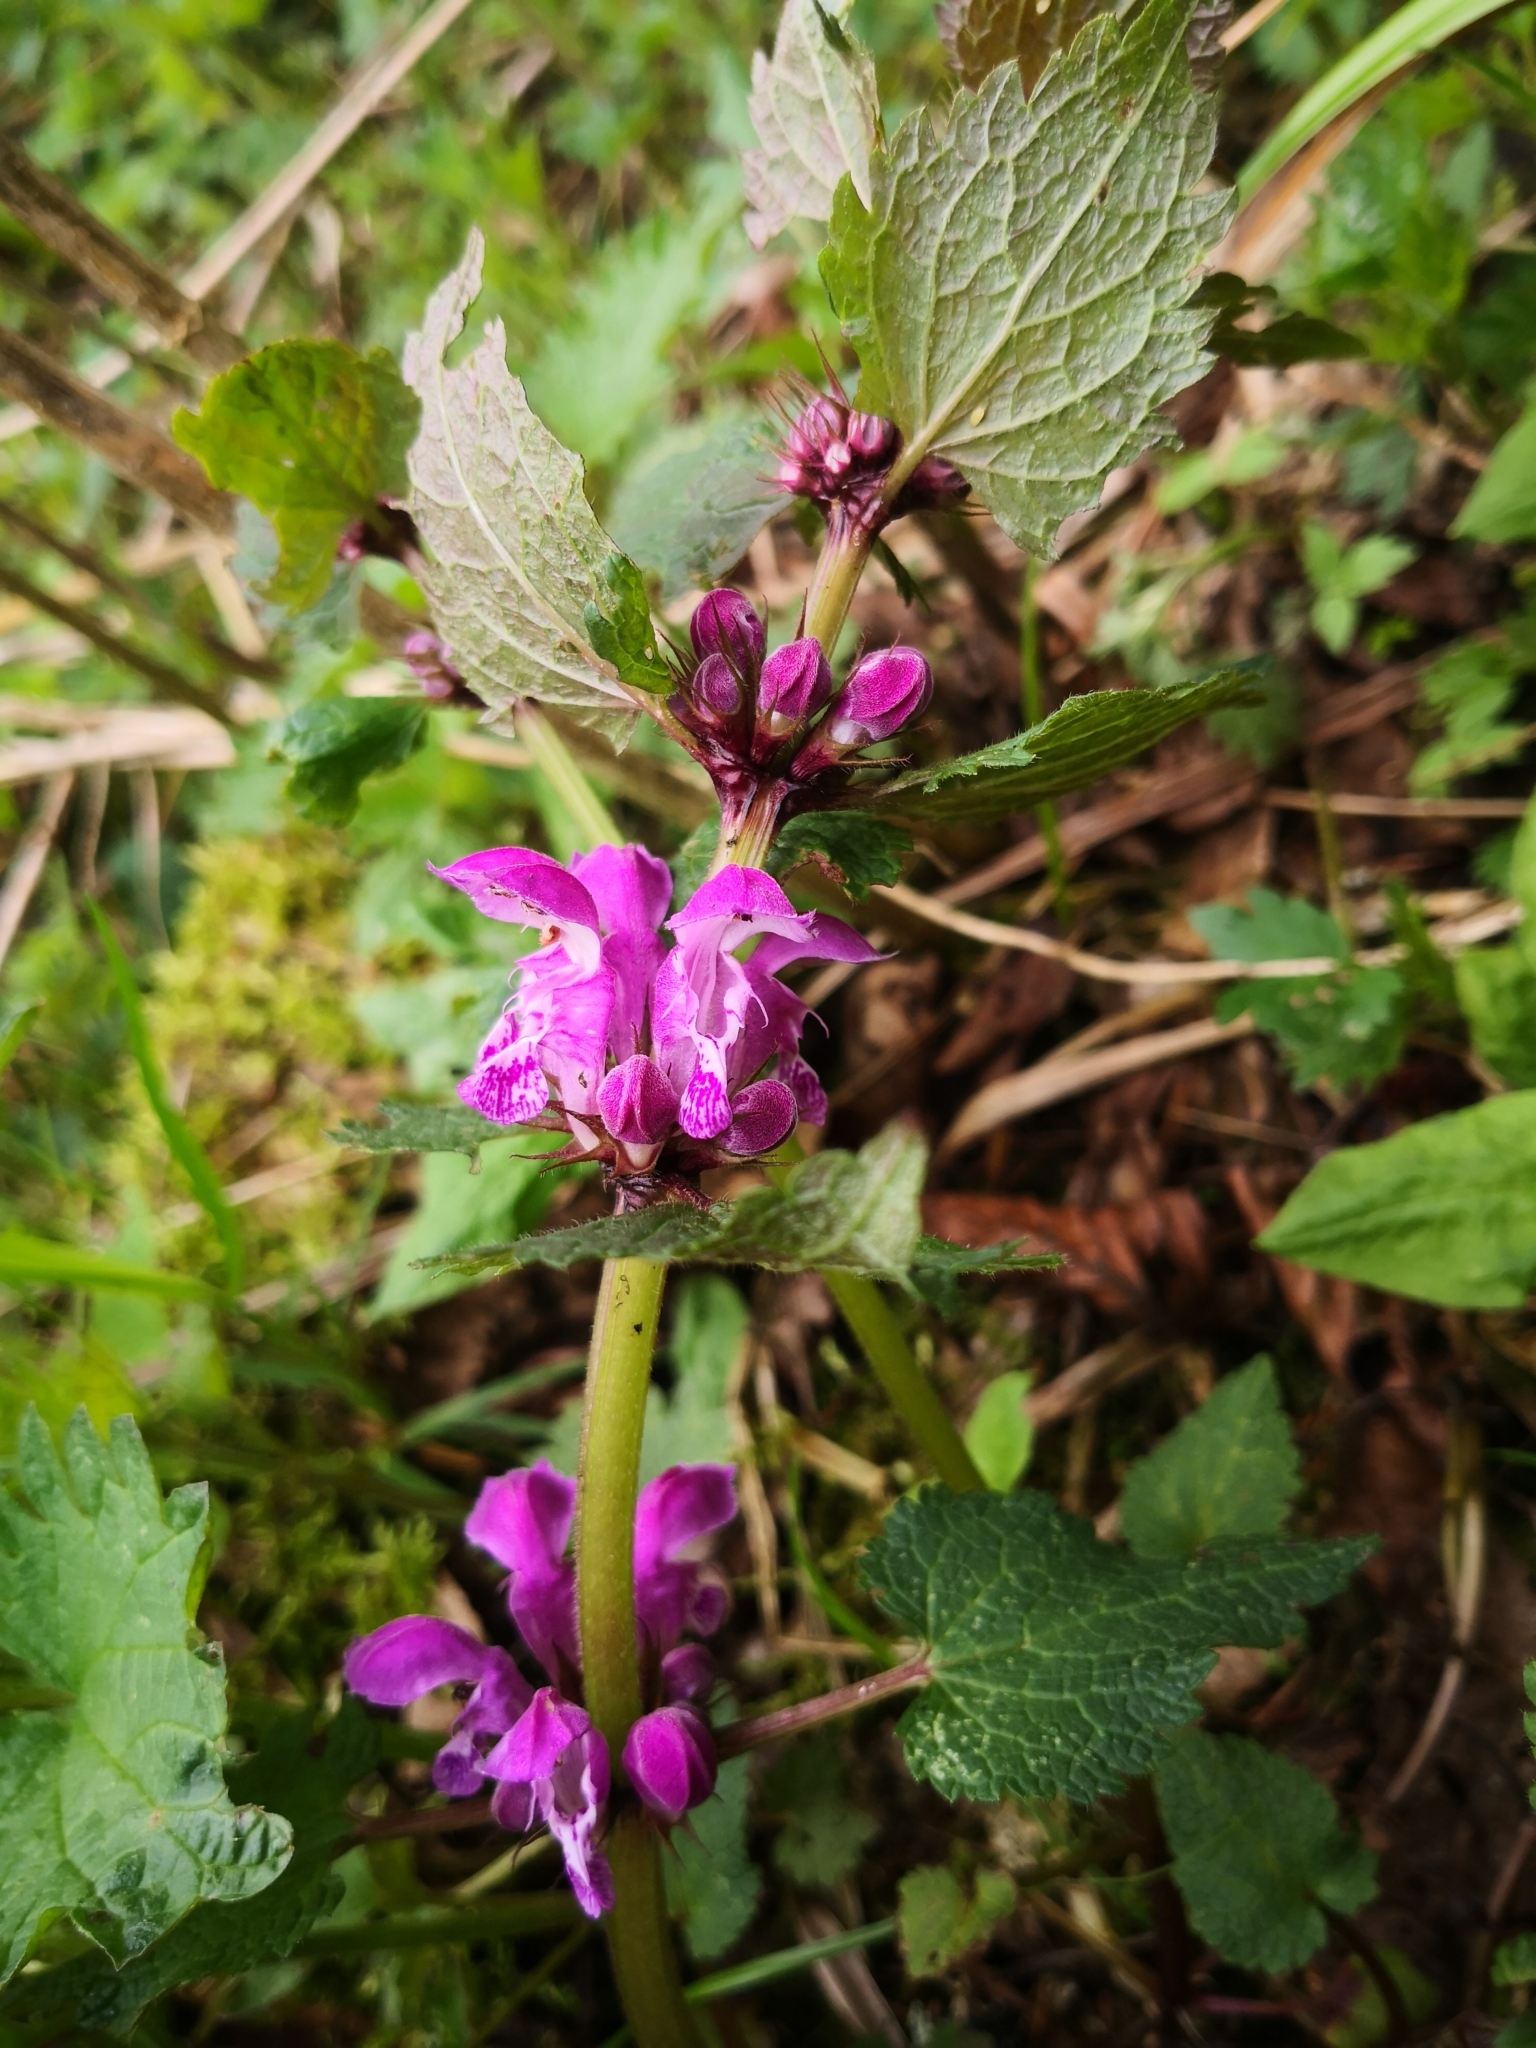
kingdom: Plantae
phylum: Tracheophyta
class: Magnoliopsida
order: Lamiales
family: Lamiaceae
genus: Lamium
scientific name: Lamium maculatum
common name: Spotted dead-nettle
